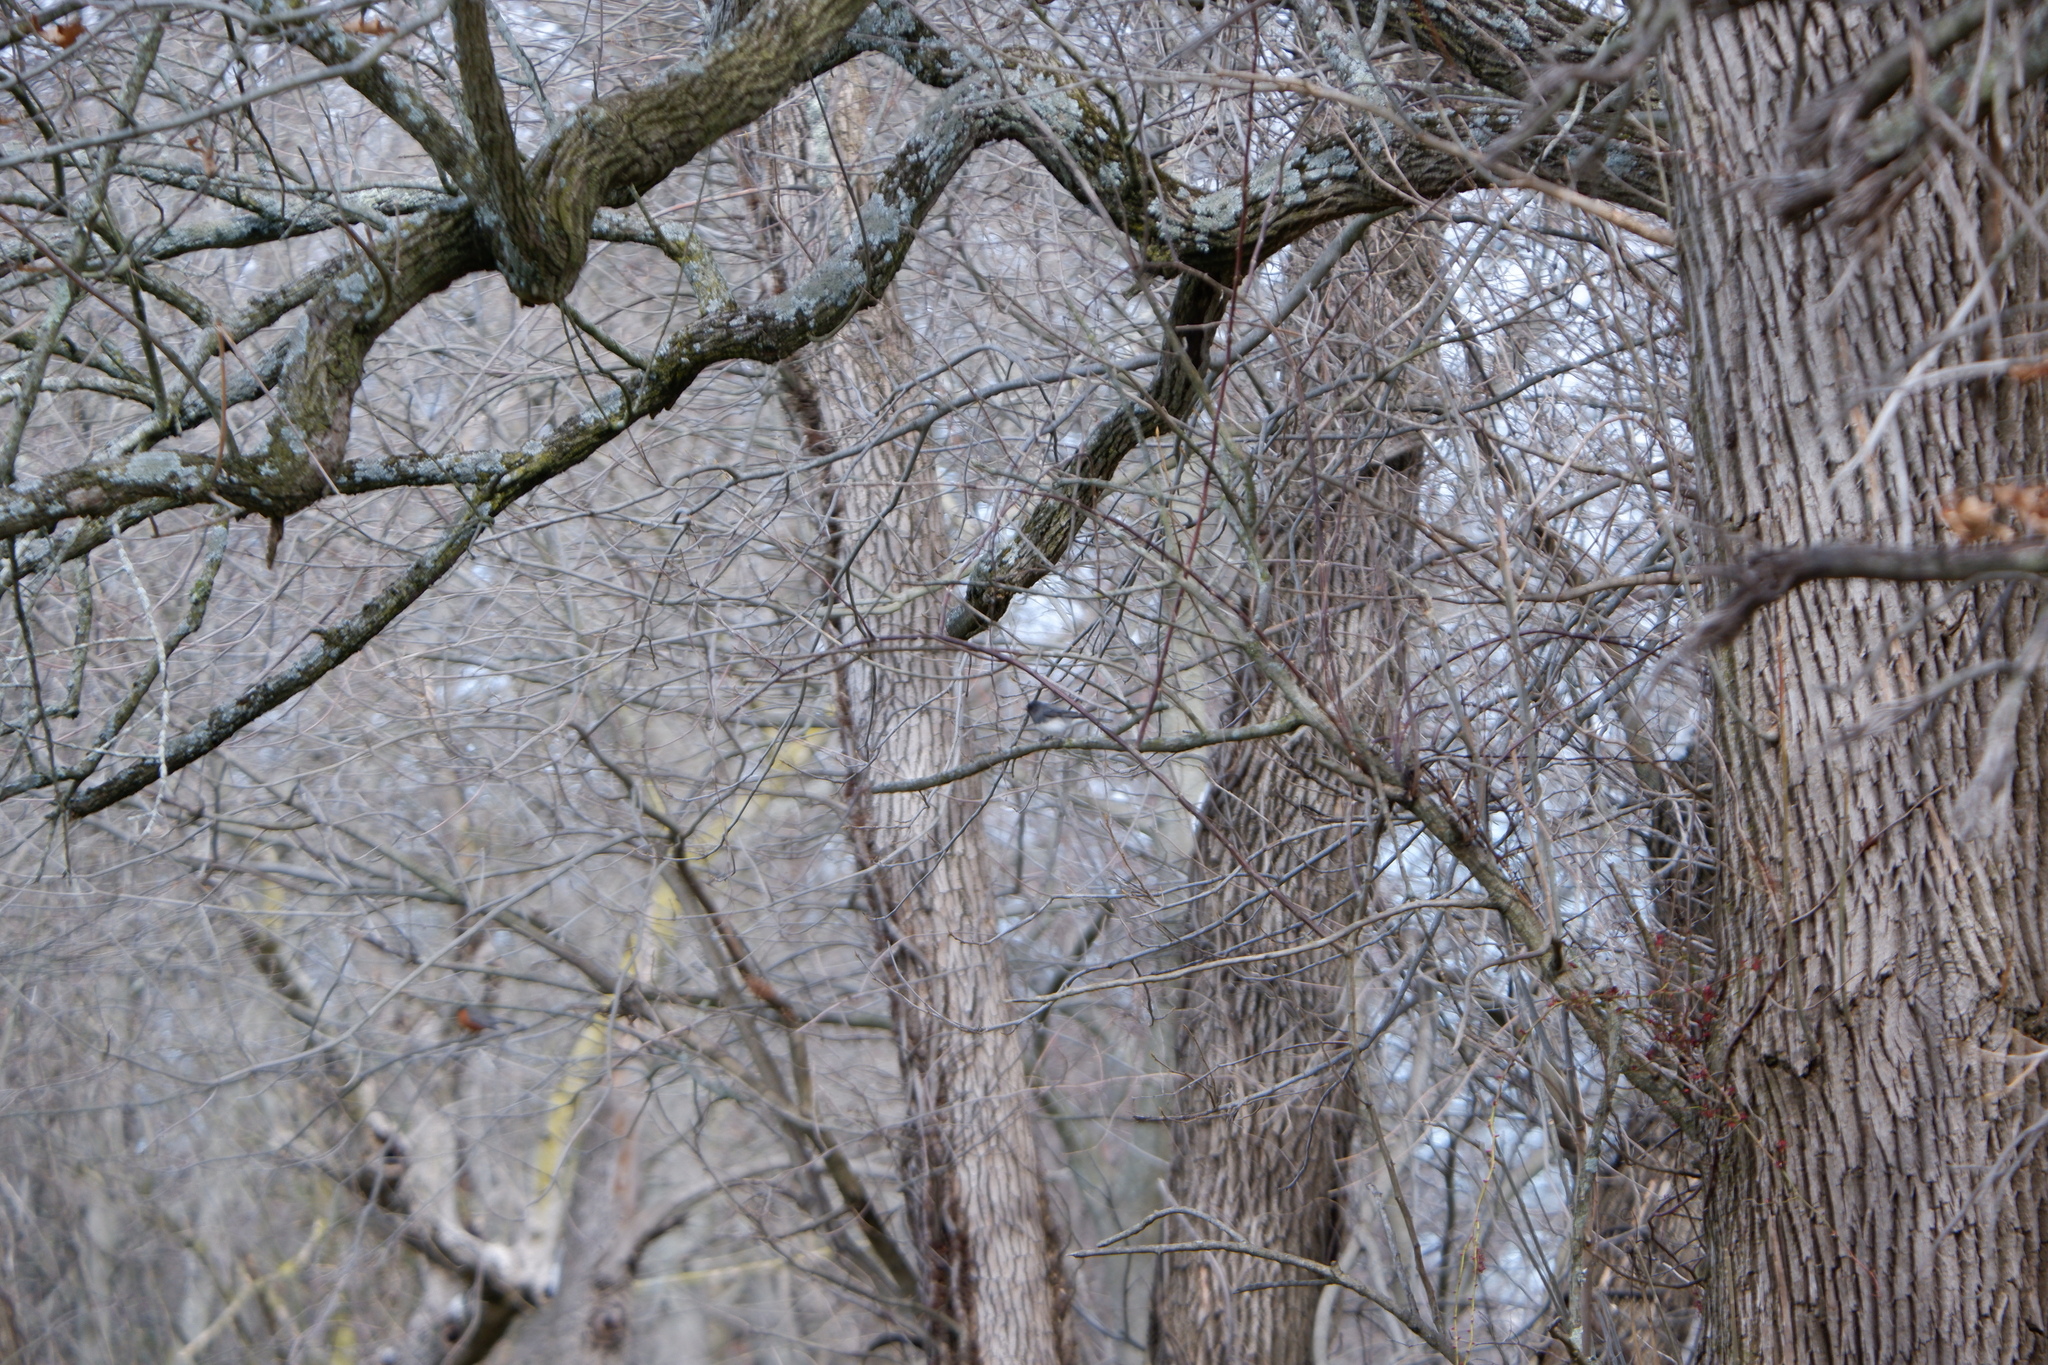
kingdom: Animalia
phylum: Chordata
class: Aves
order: Passeriformes
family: Passerellidae
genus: Junco
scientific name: Junco hyemalis
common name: Dark-eyed junco
